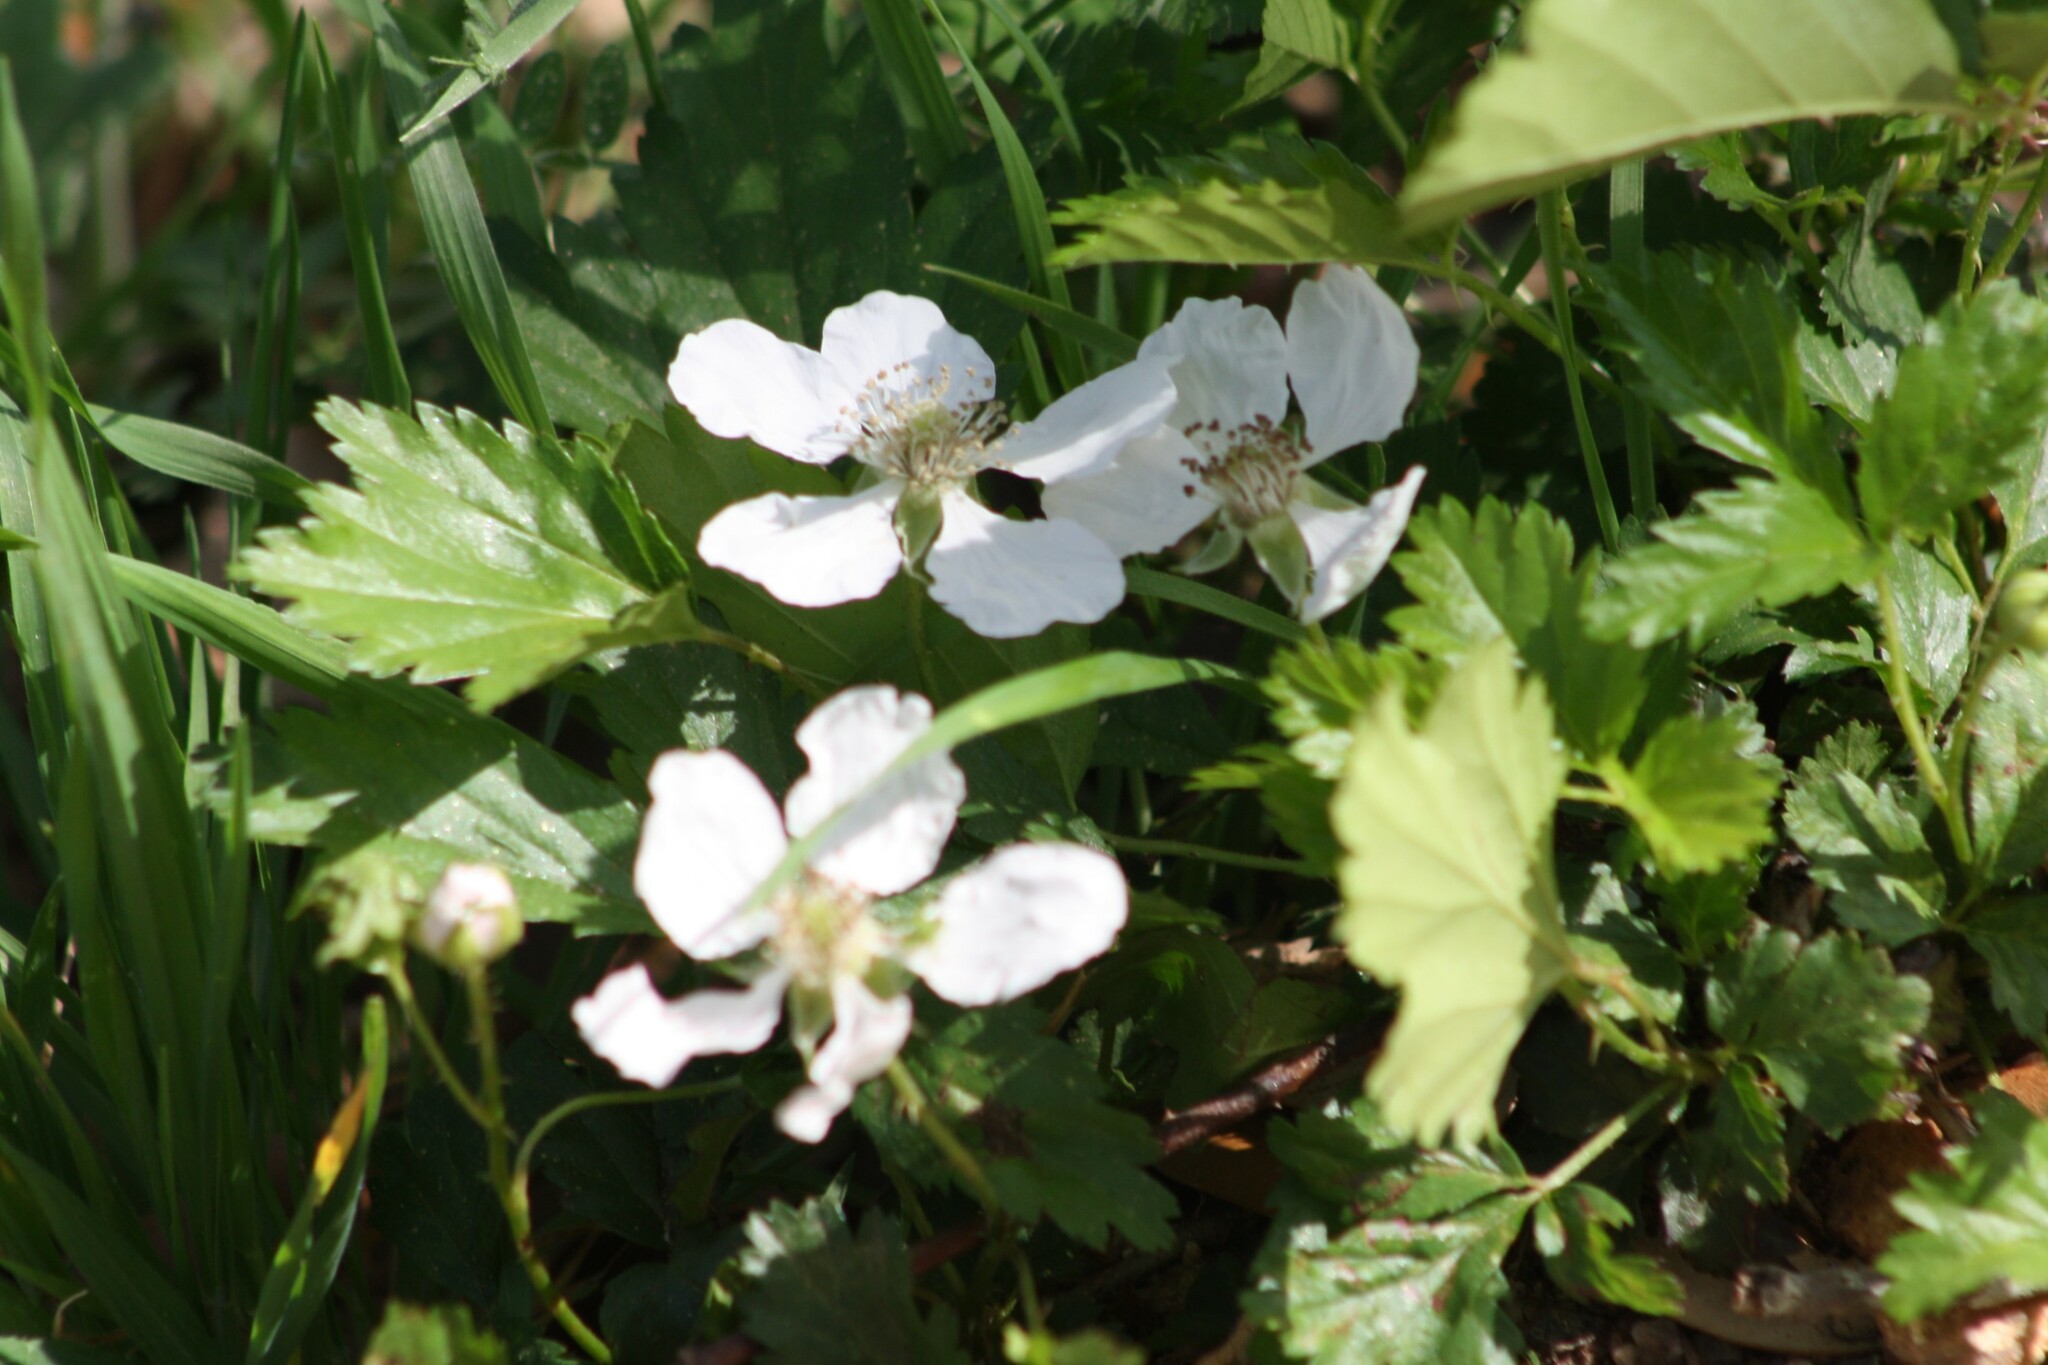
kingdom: Plantae
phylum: Tracheophyta
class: Magnoliopsida
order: Rosales
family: Rosaceae
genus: Rubus
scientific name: Rubus trivialis
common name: Southern dewberry
